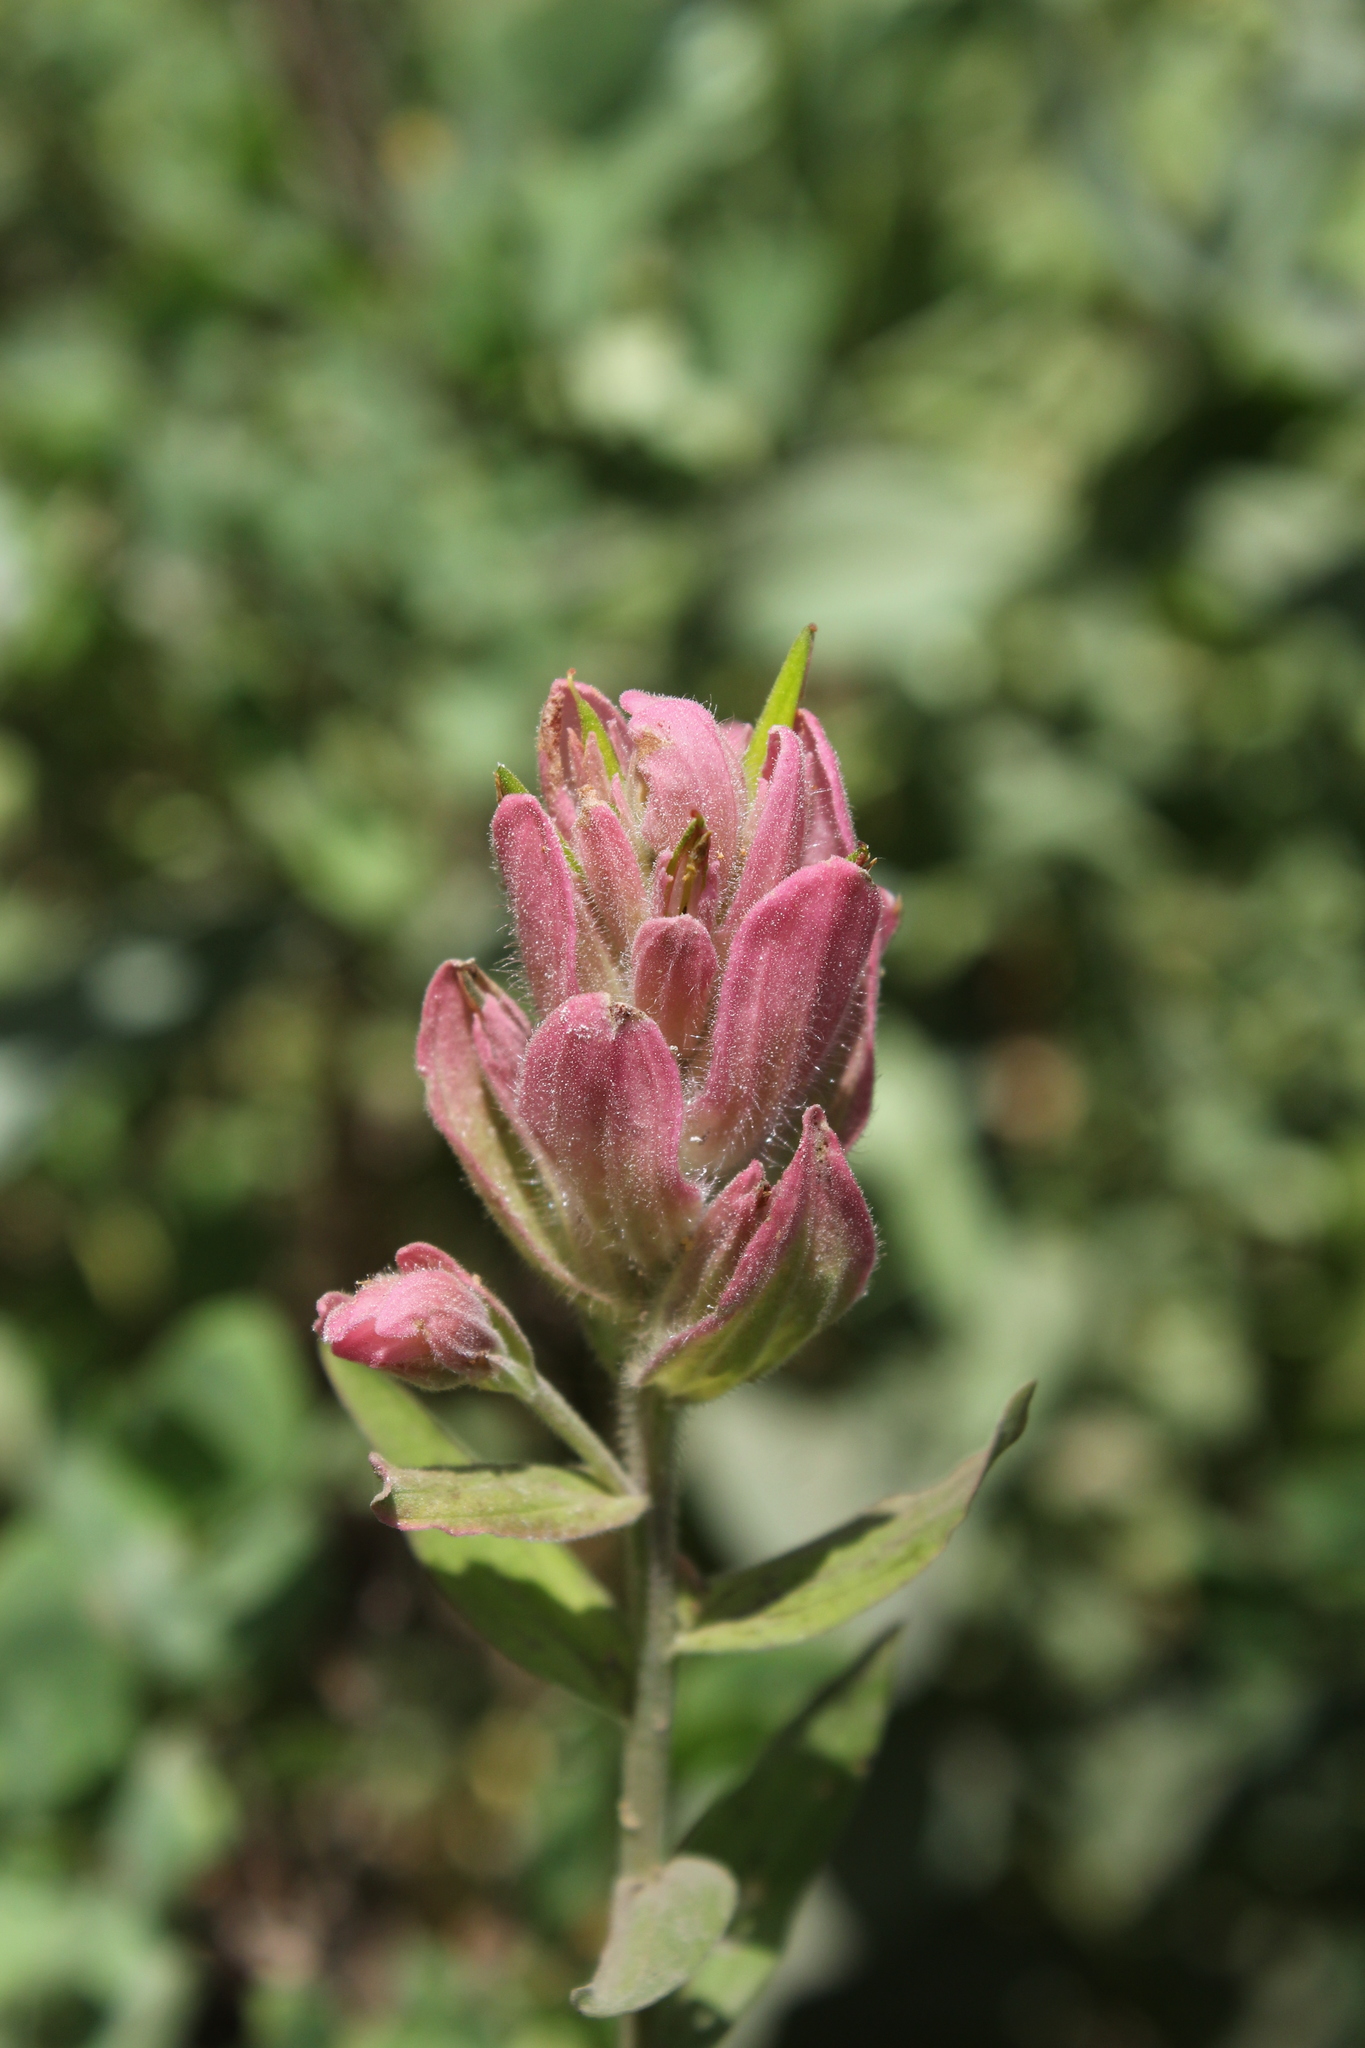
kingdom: Plantae
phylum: Tracheophyta
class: Magnoliopsida
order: Lamiales
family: Orobanchaceae
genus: Castilleja
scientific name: Castilleja rhexifolia
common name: Rocky mountain paintbrush
